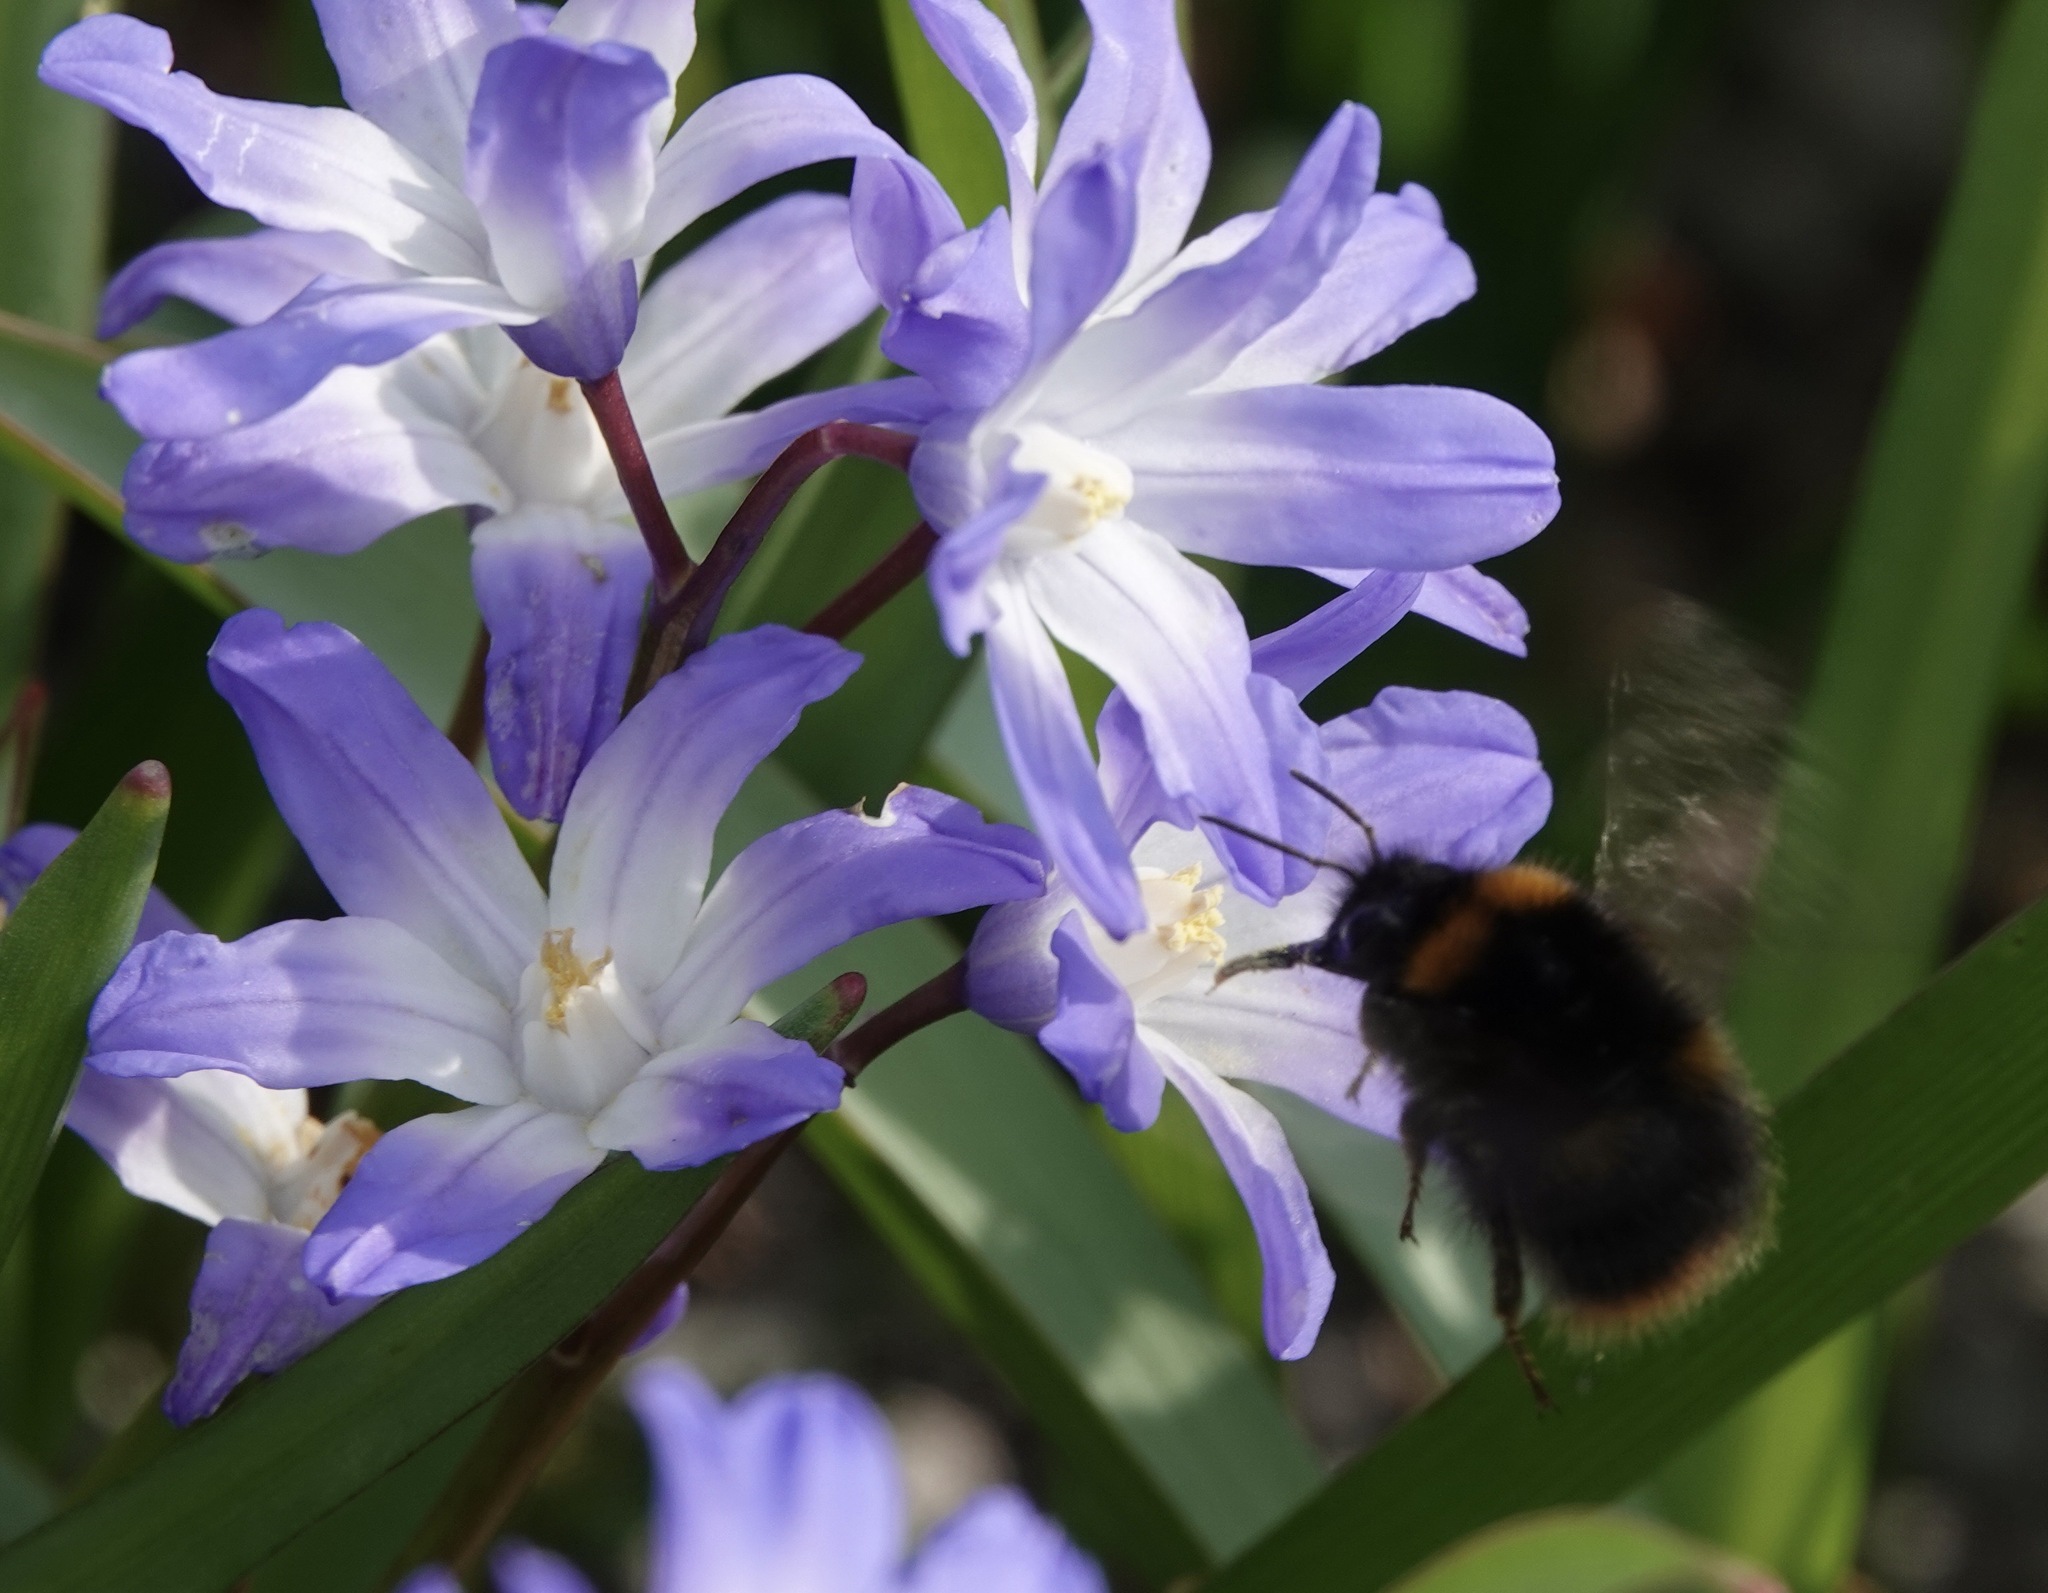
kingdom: Animalia
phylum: Arthropoda
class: Insecta
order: Hymenoptera
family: Apidae
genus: Bombus
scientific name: Bombus pratorum
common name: Early humble-bee
